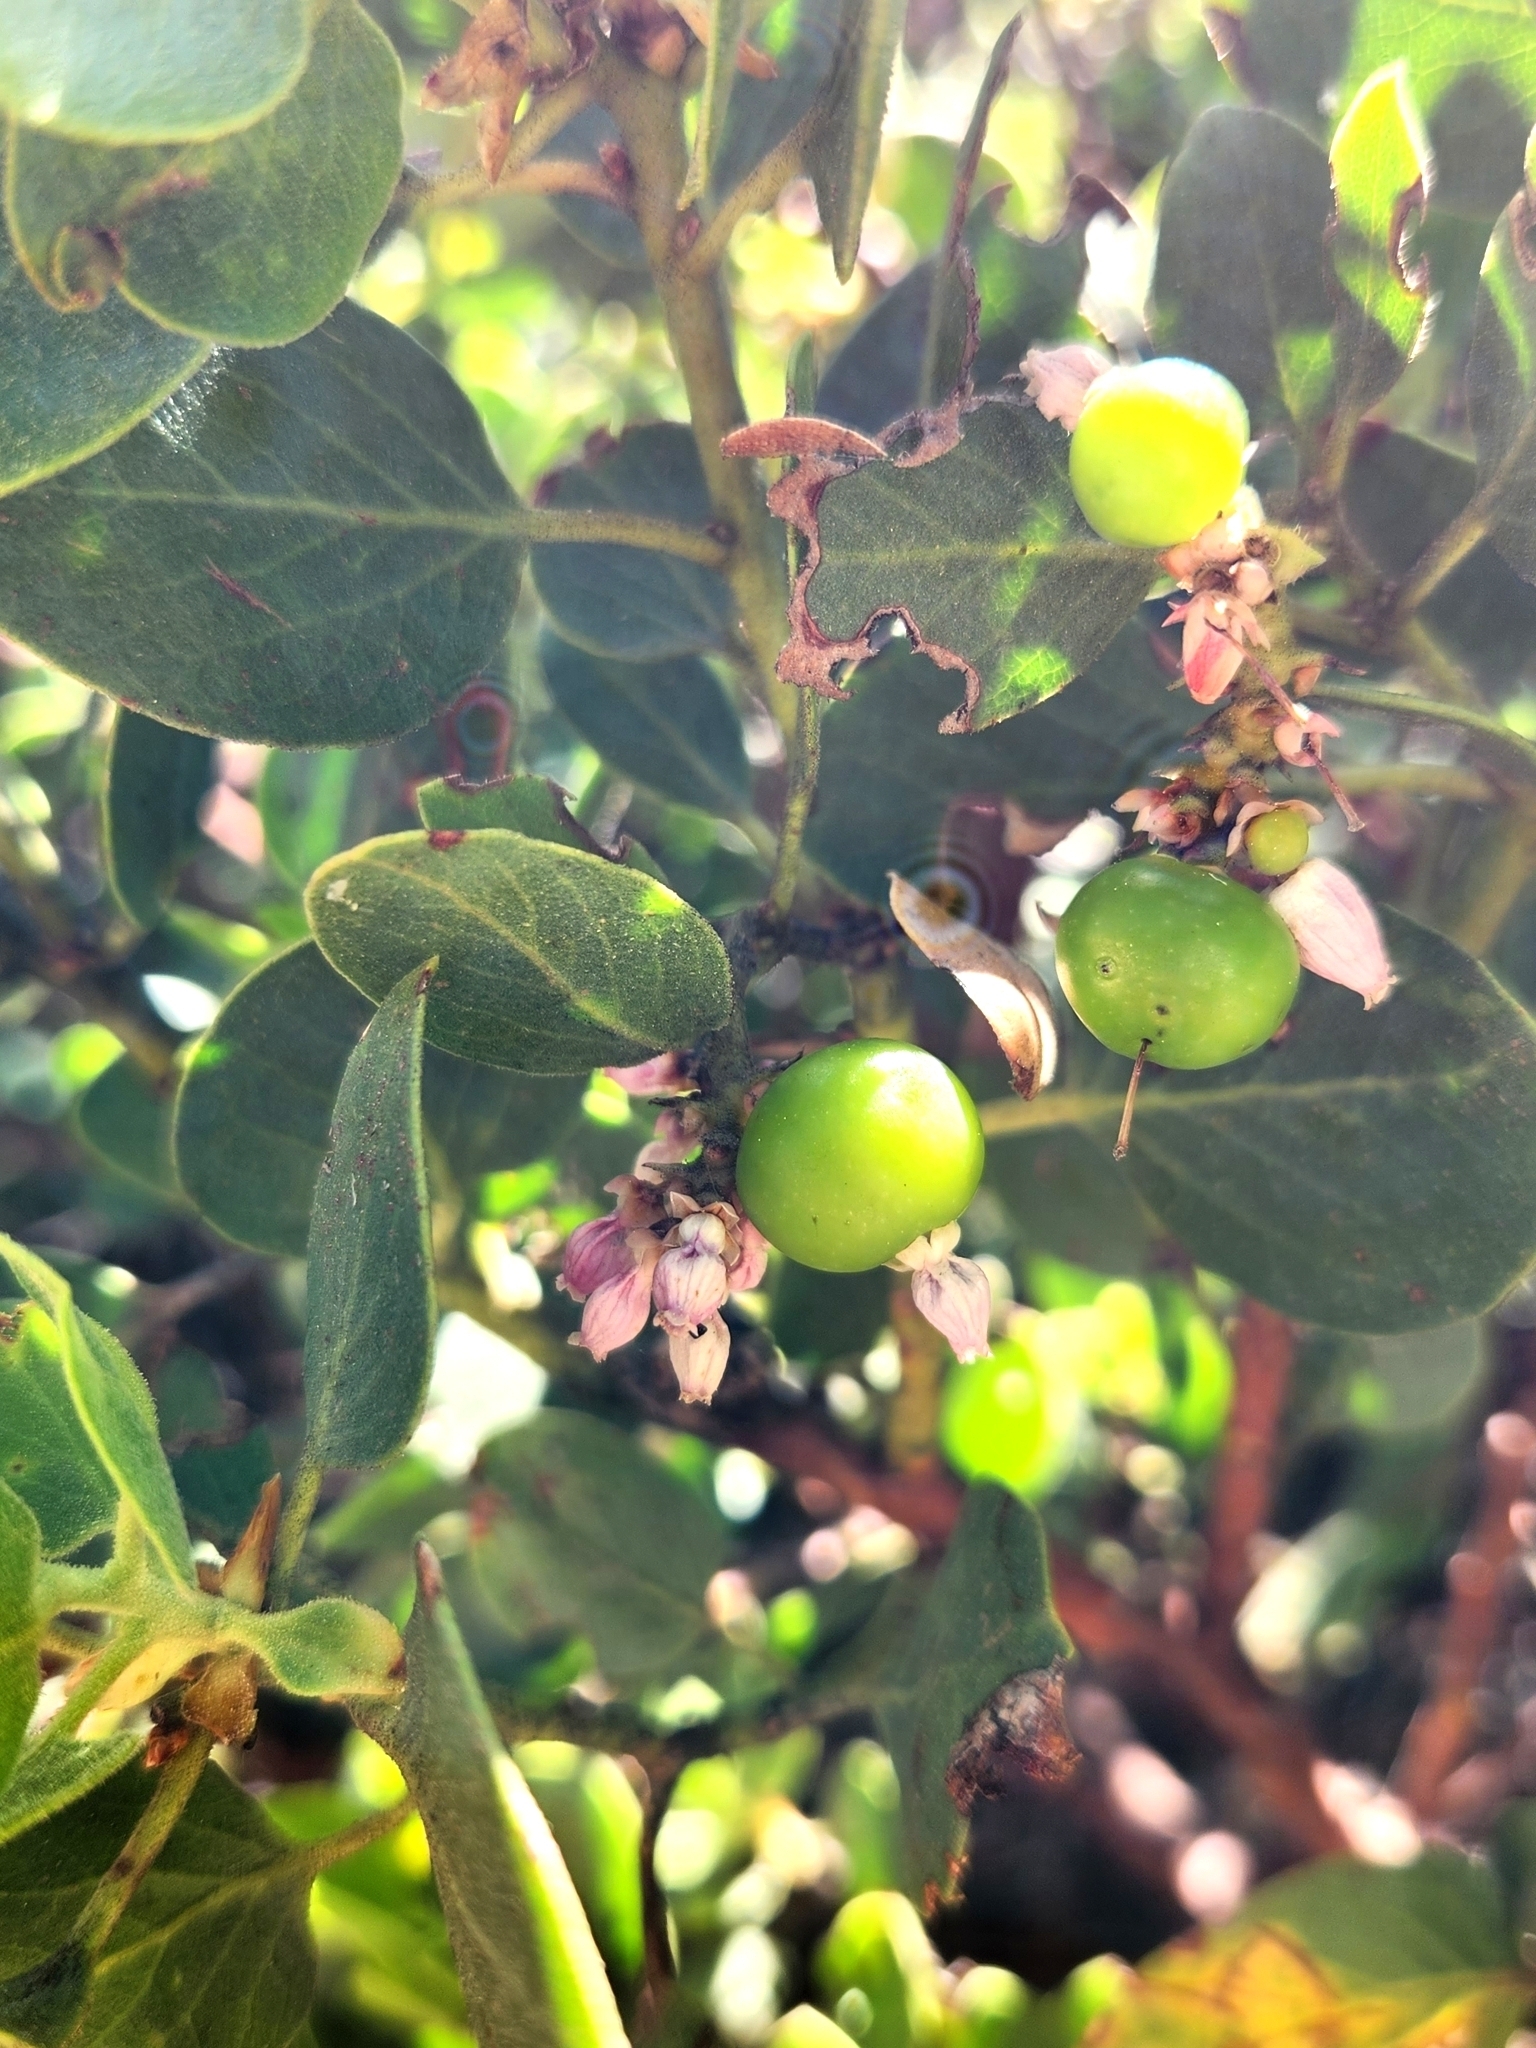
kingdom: Plantae
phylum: Tracheophyta
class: Magnoliopsida
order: Ericales
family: Ericaceae
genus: Arctostaphylos
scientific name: Arctostaphylos patula
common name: Green-leaf manzanita
